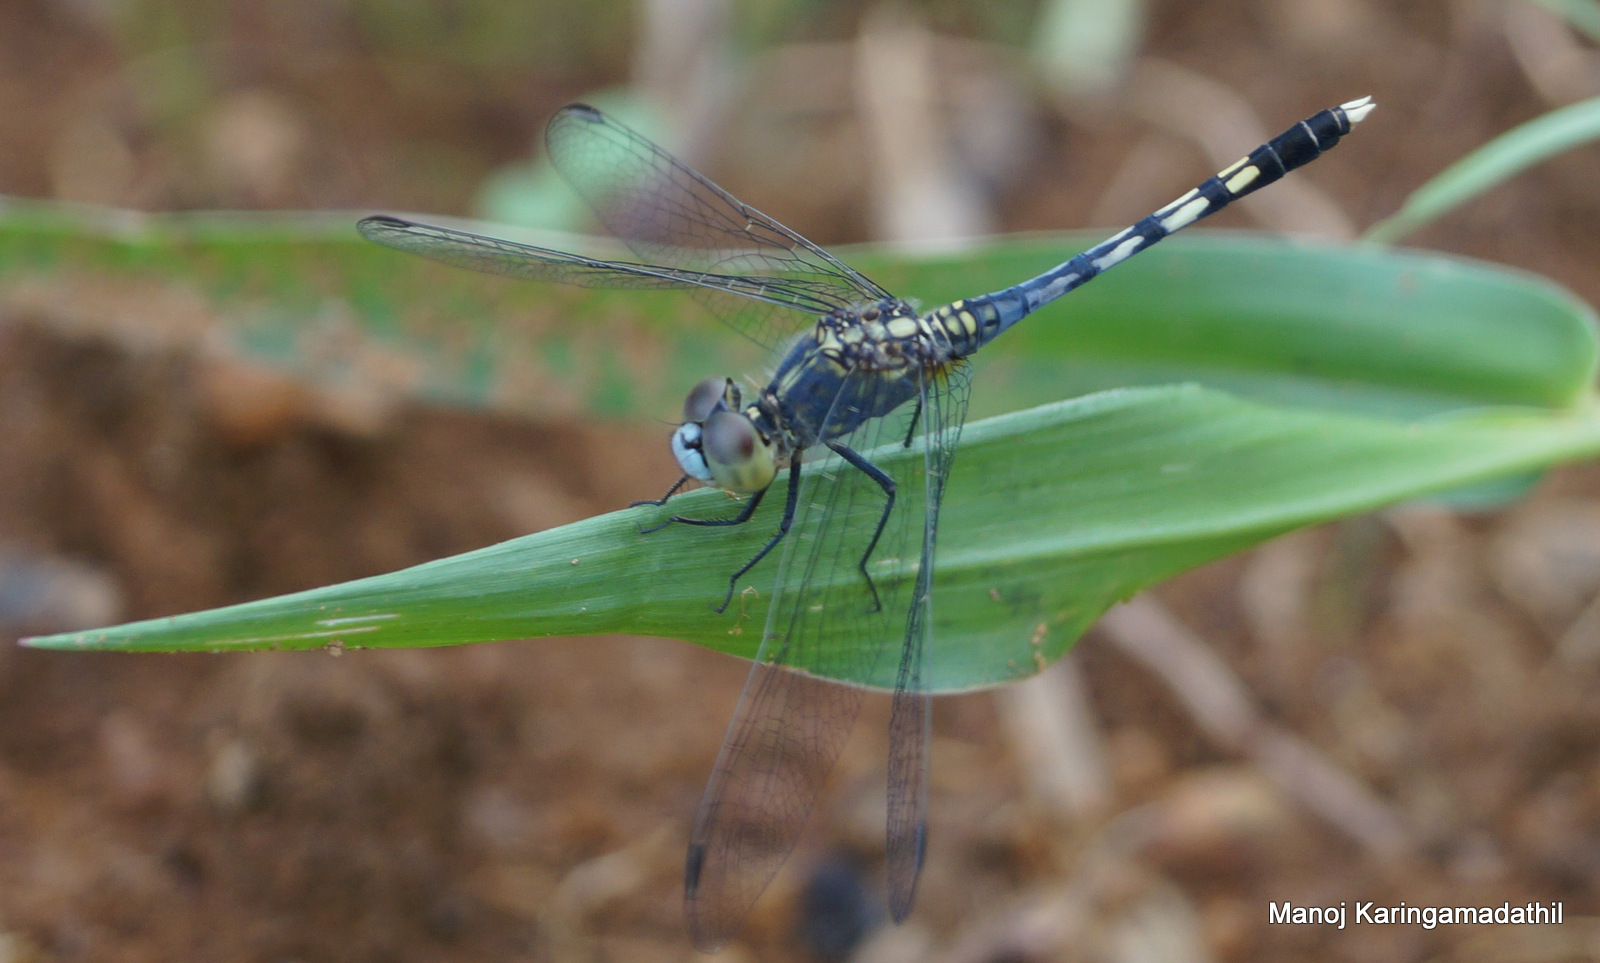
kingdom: Animalia
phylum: Arthropoda
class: Insecta
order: Odonata
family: Libellulidae
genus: Diplacodes
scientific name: Diplacodes trivialis
